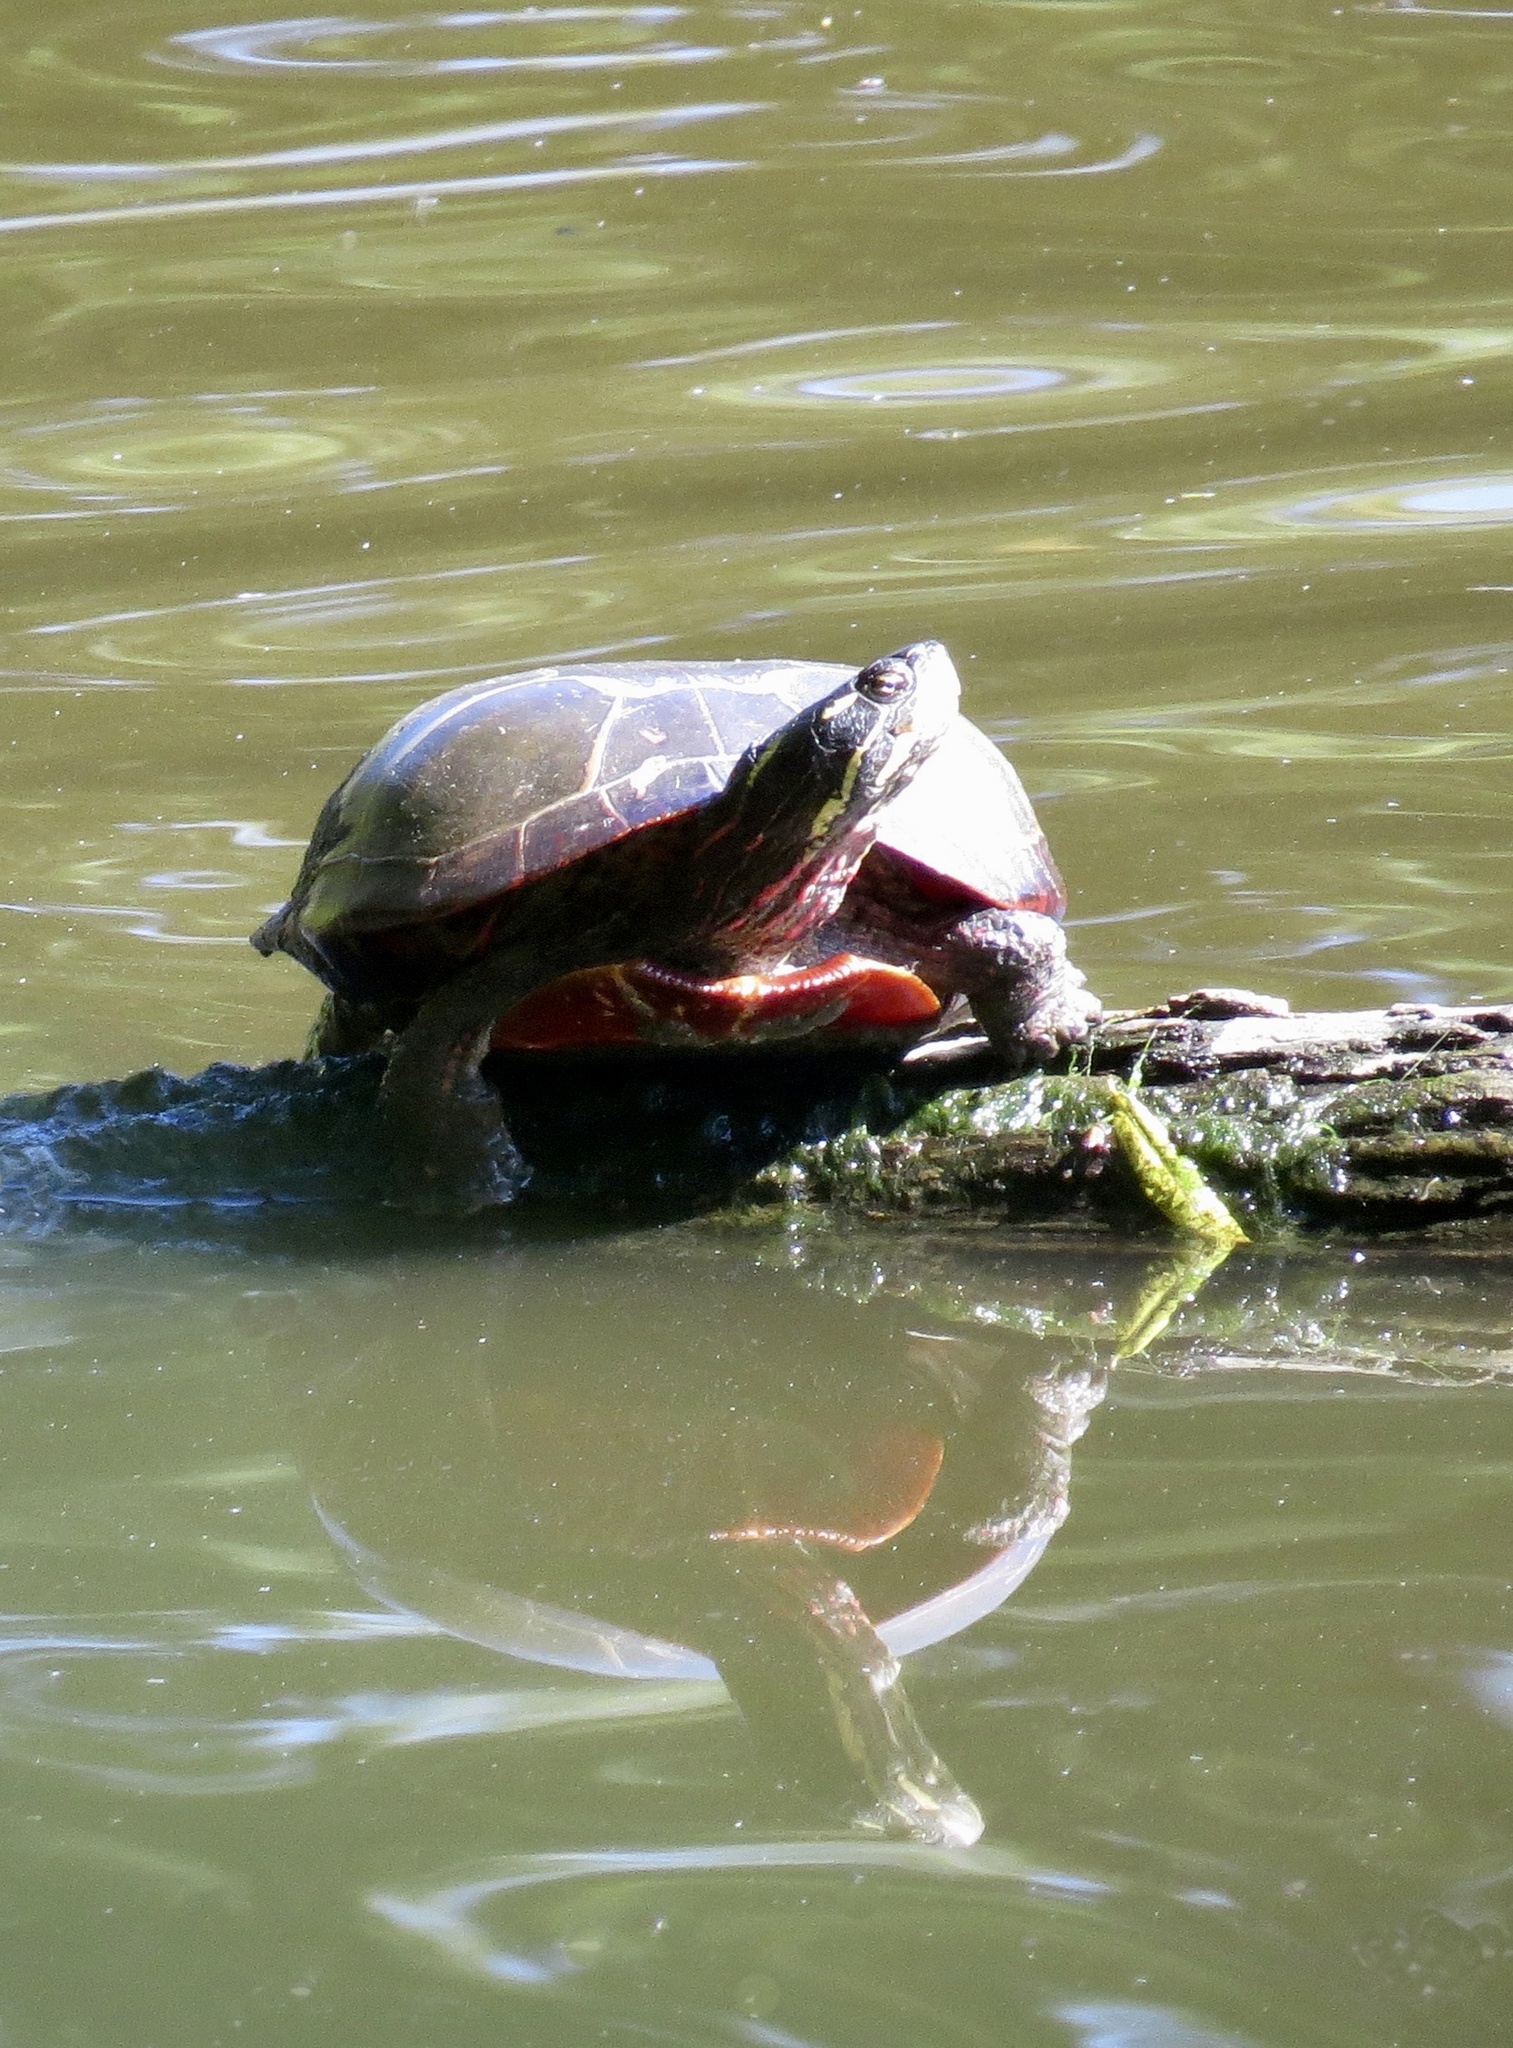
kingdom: Animalia
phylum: Chordata
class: Testudines
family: Emydidae
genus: Chrysemys
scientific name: Chrysemys picta
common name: Painted turtle
